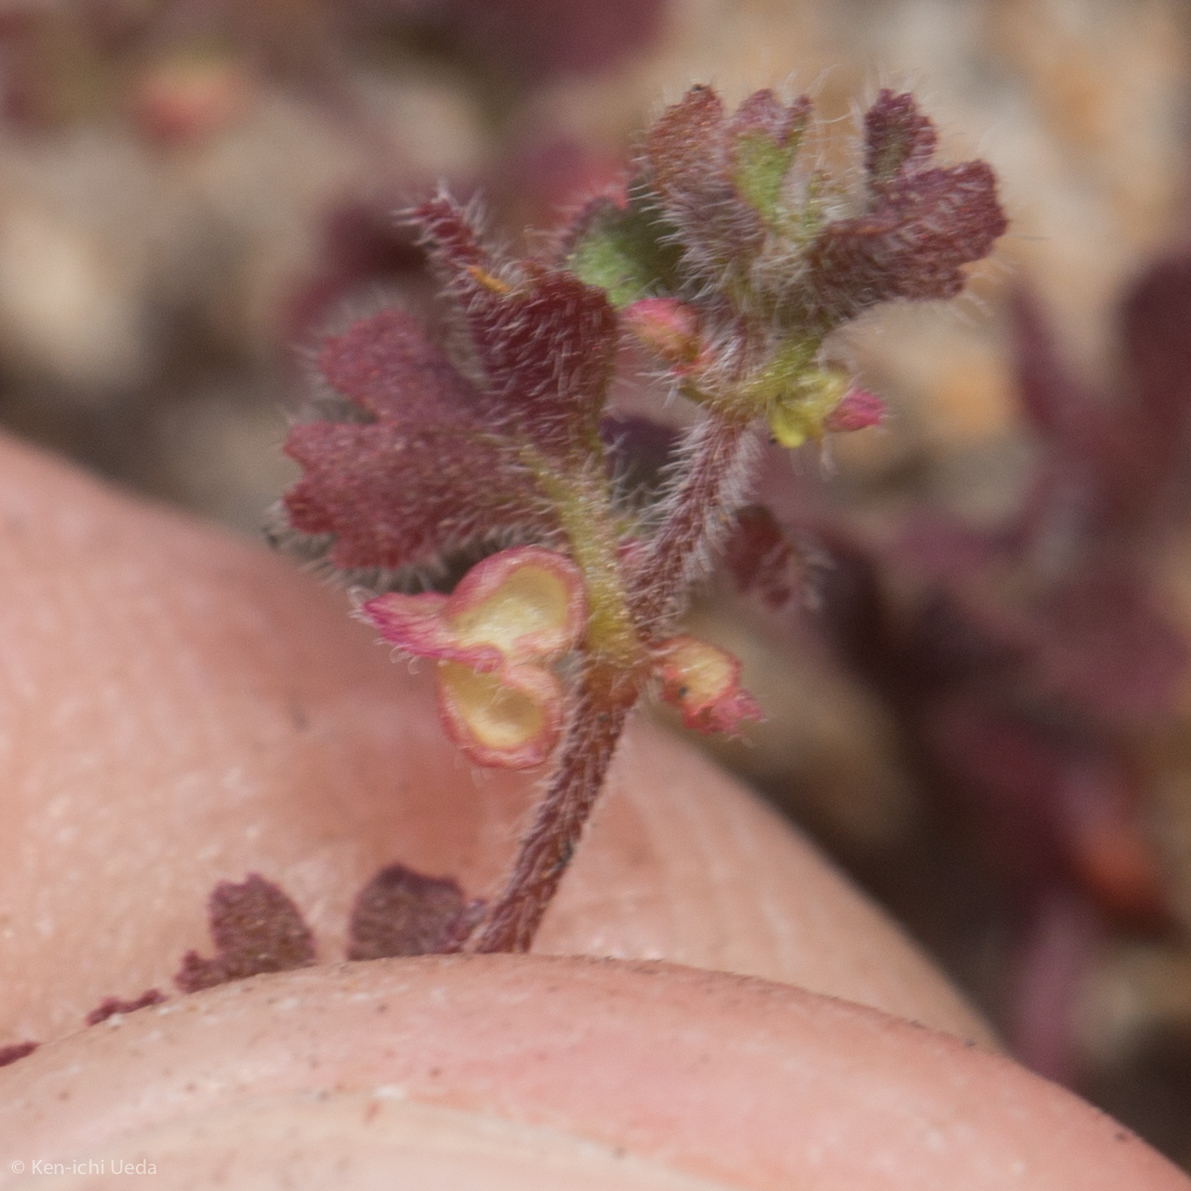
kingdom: Plantae
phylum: Tracheophyta
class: Magnoliopsida
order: Caryophyllales
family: Polygonaceae
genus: Pterostegia
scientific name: Pterostegia drymarioides
